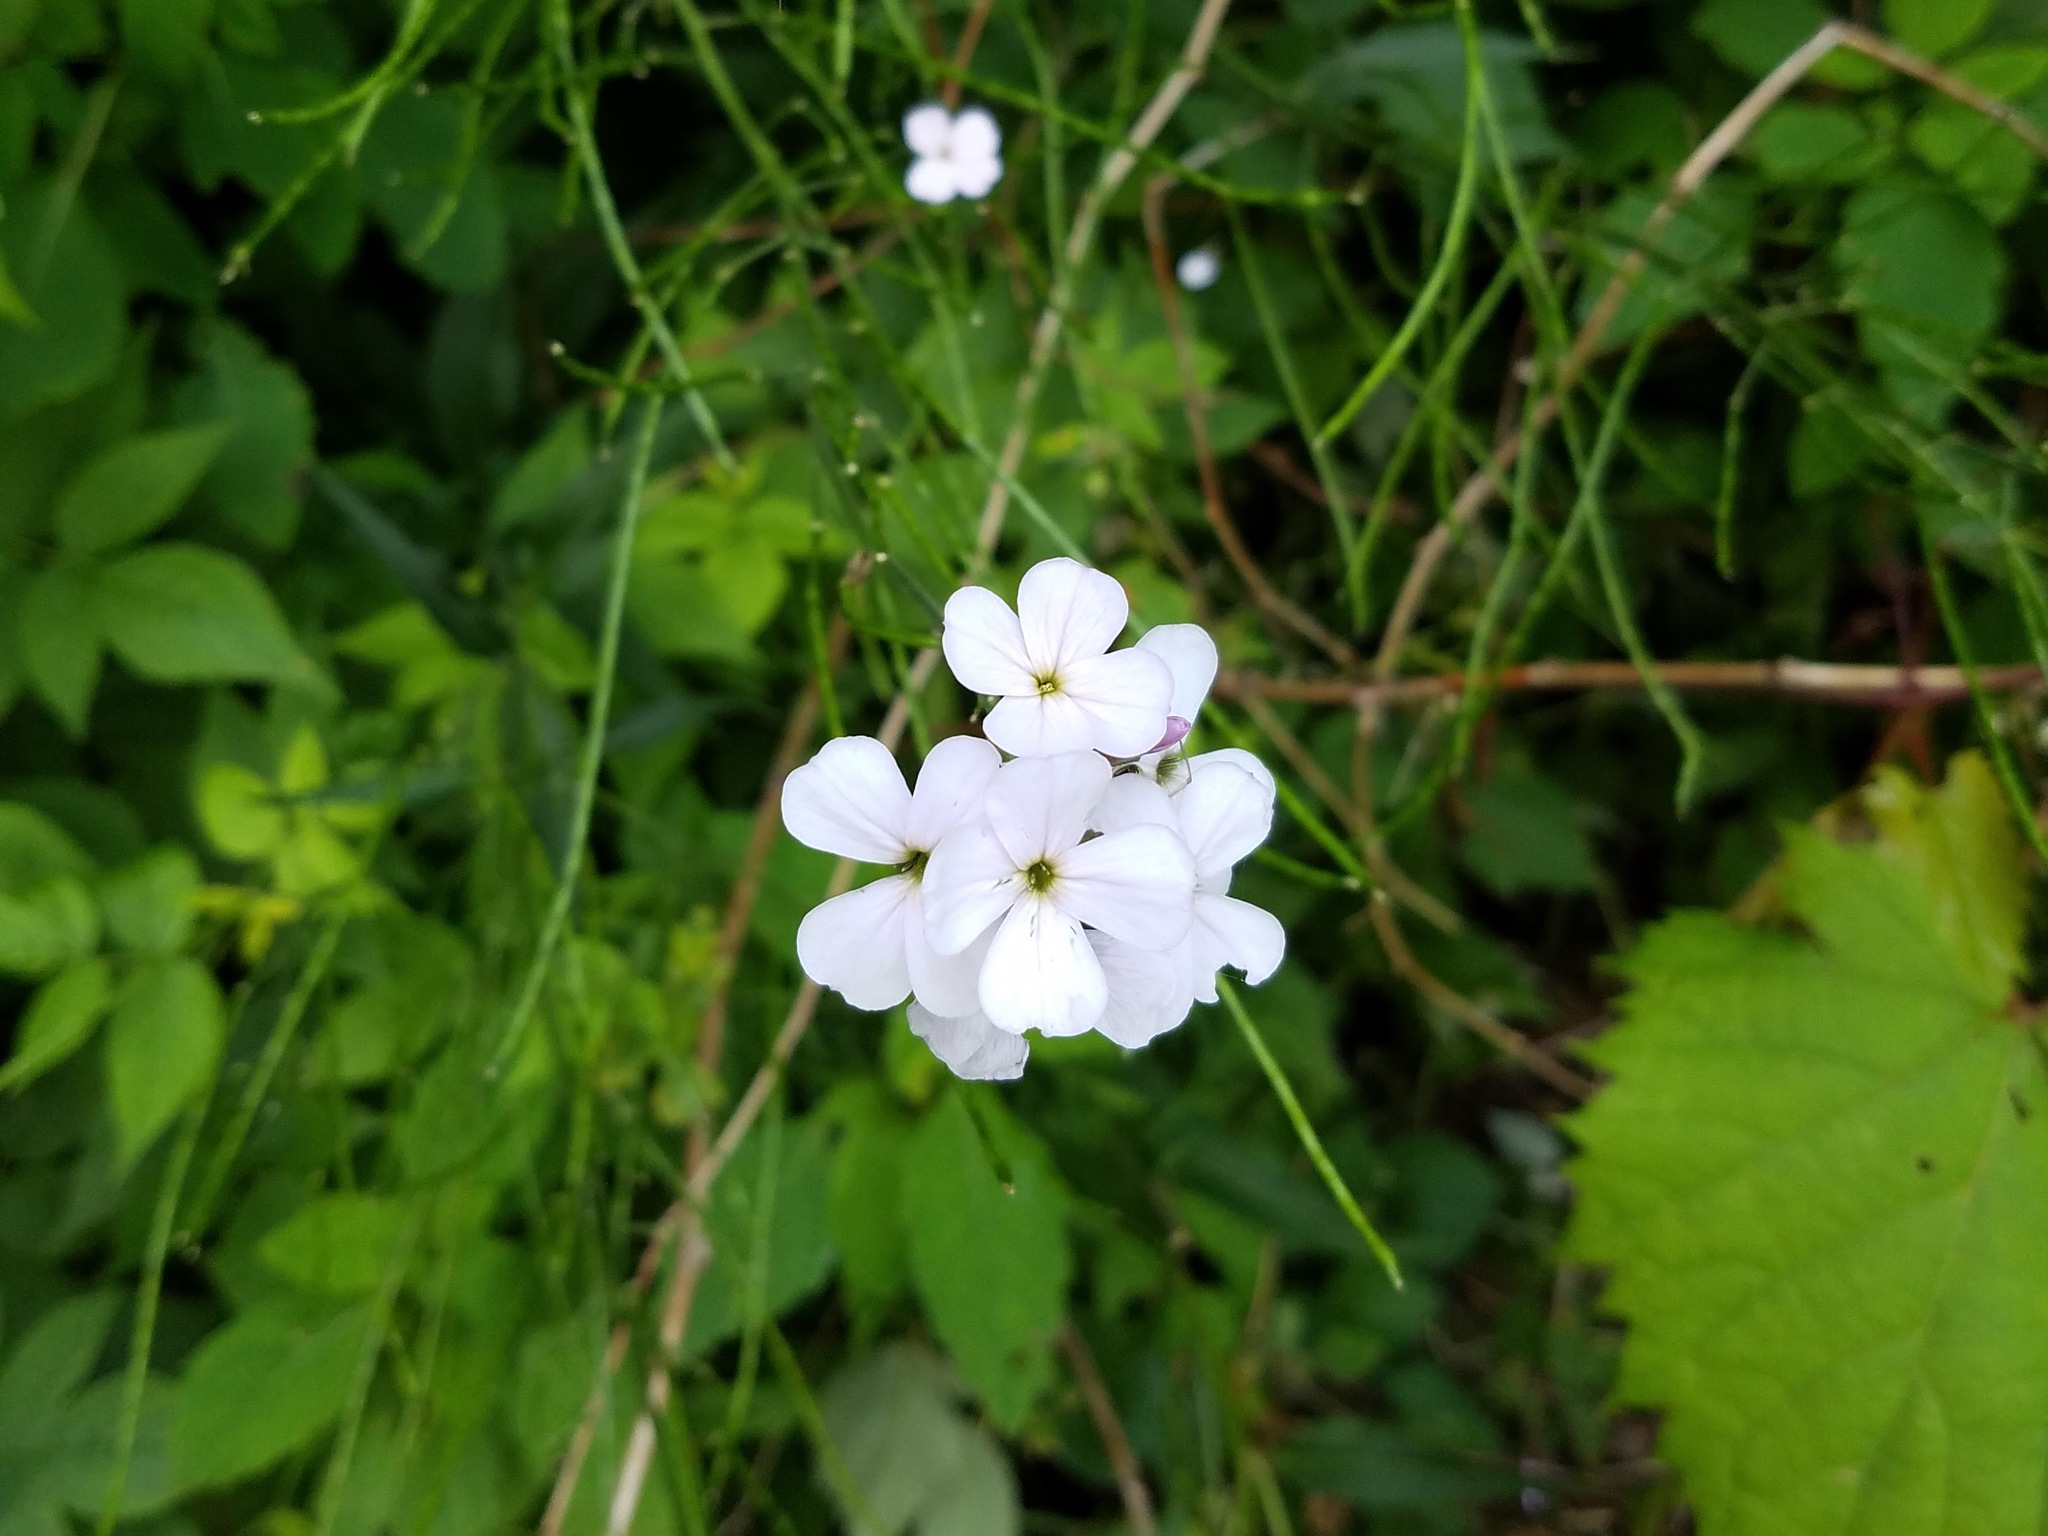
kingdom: Plantae
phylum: Tracheophyta
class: Magnoliopsida
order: Brassicales
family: Brassicaceae
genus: Hesperis
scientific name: Hesperis matronalis
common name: Dame's-violet
